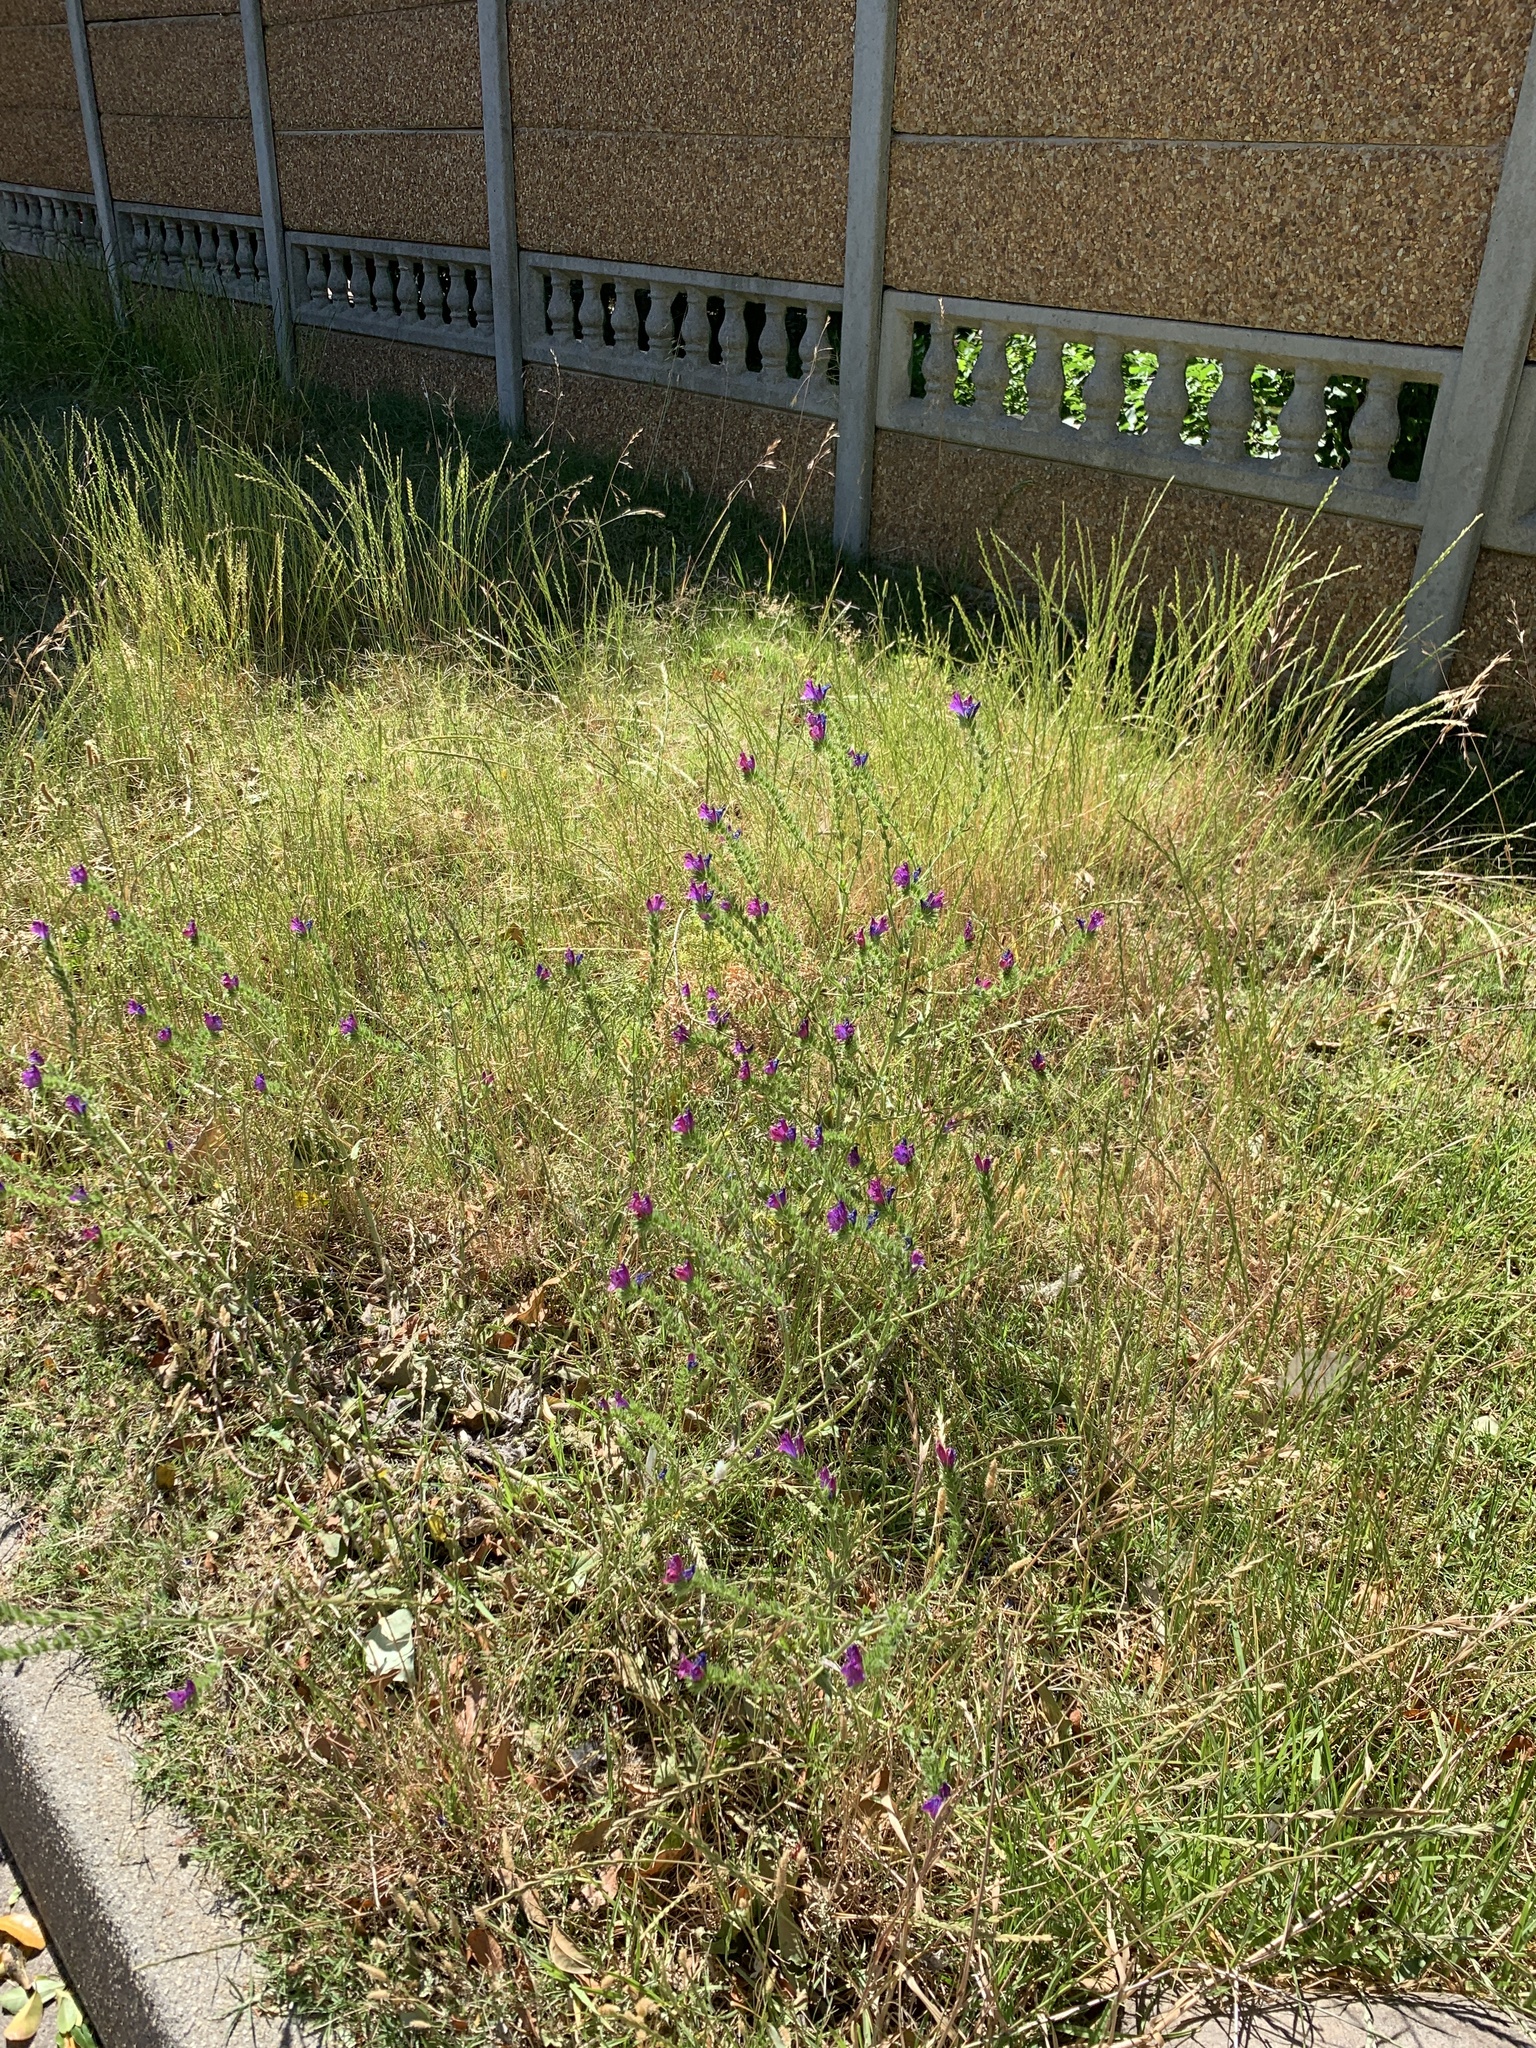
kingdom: Plantae
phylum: Tracheophyta
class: Magnoliopsida
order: Boraginales
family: Boraginaceae
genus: Echium
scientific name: Echium plantagineum
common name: Purple viper's-bugloss
